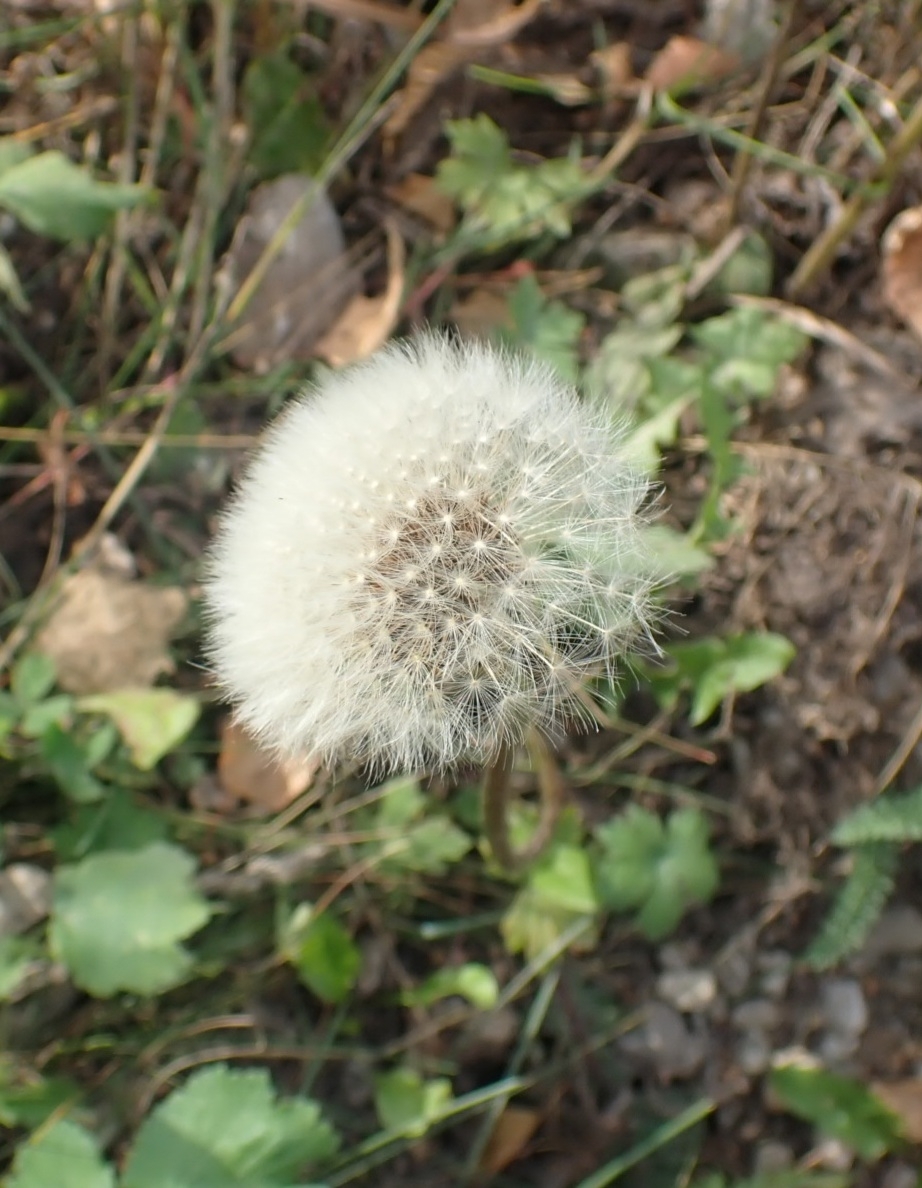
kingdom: Plantae
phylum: Tracheophyta
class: Magnoliopsida
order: Asterales
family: Asteraceae
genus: Taraxacum
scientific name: Taraxacum officinale
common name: Common dandelion
